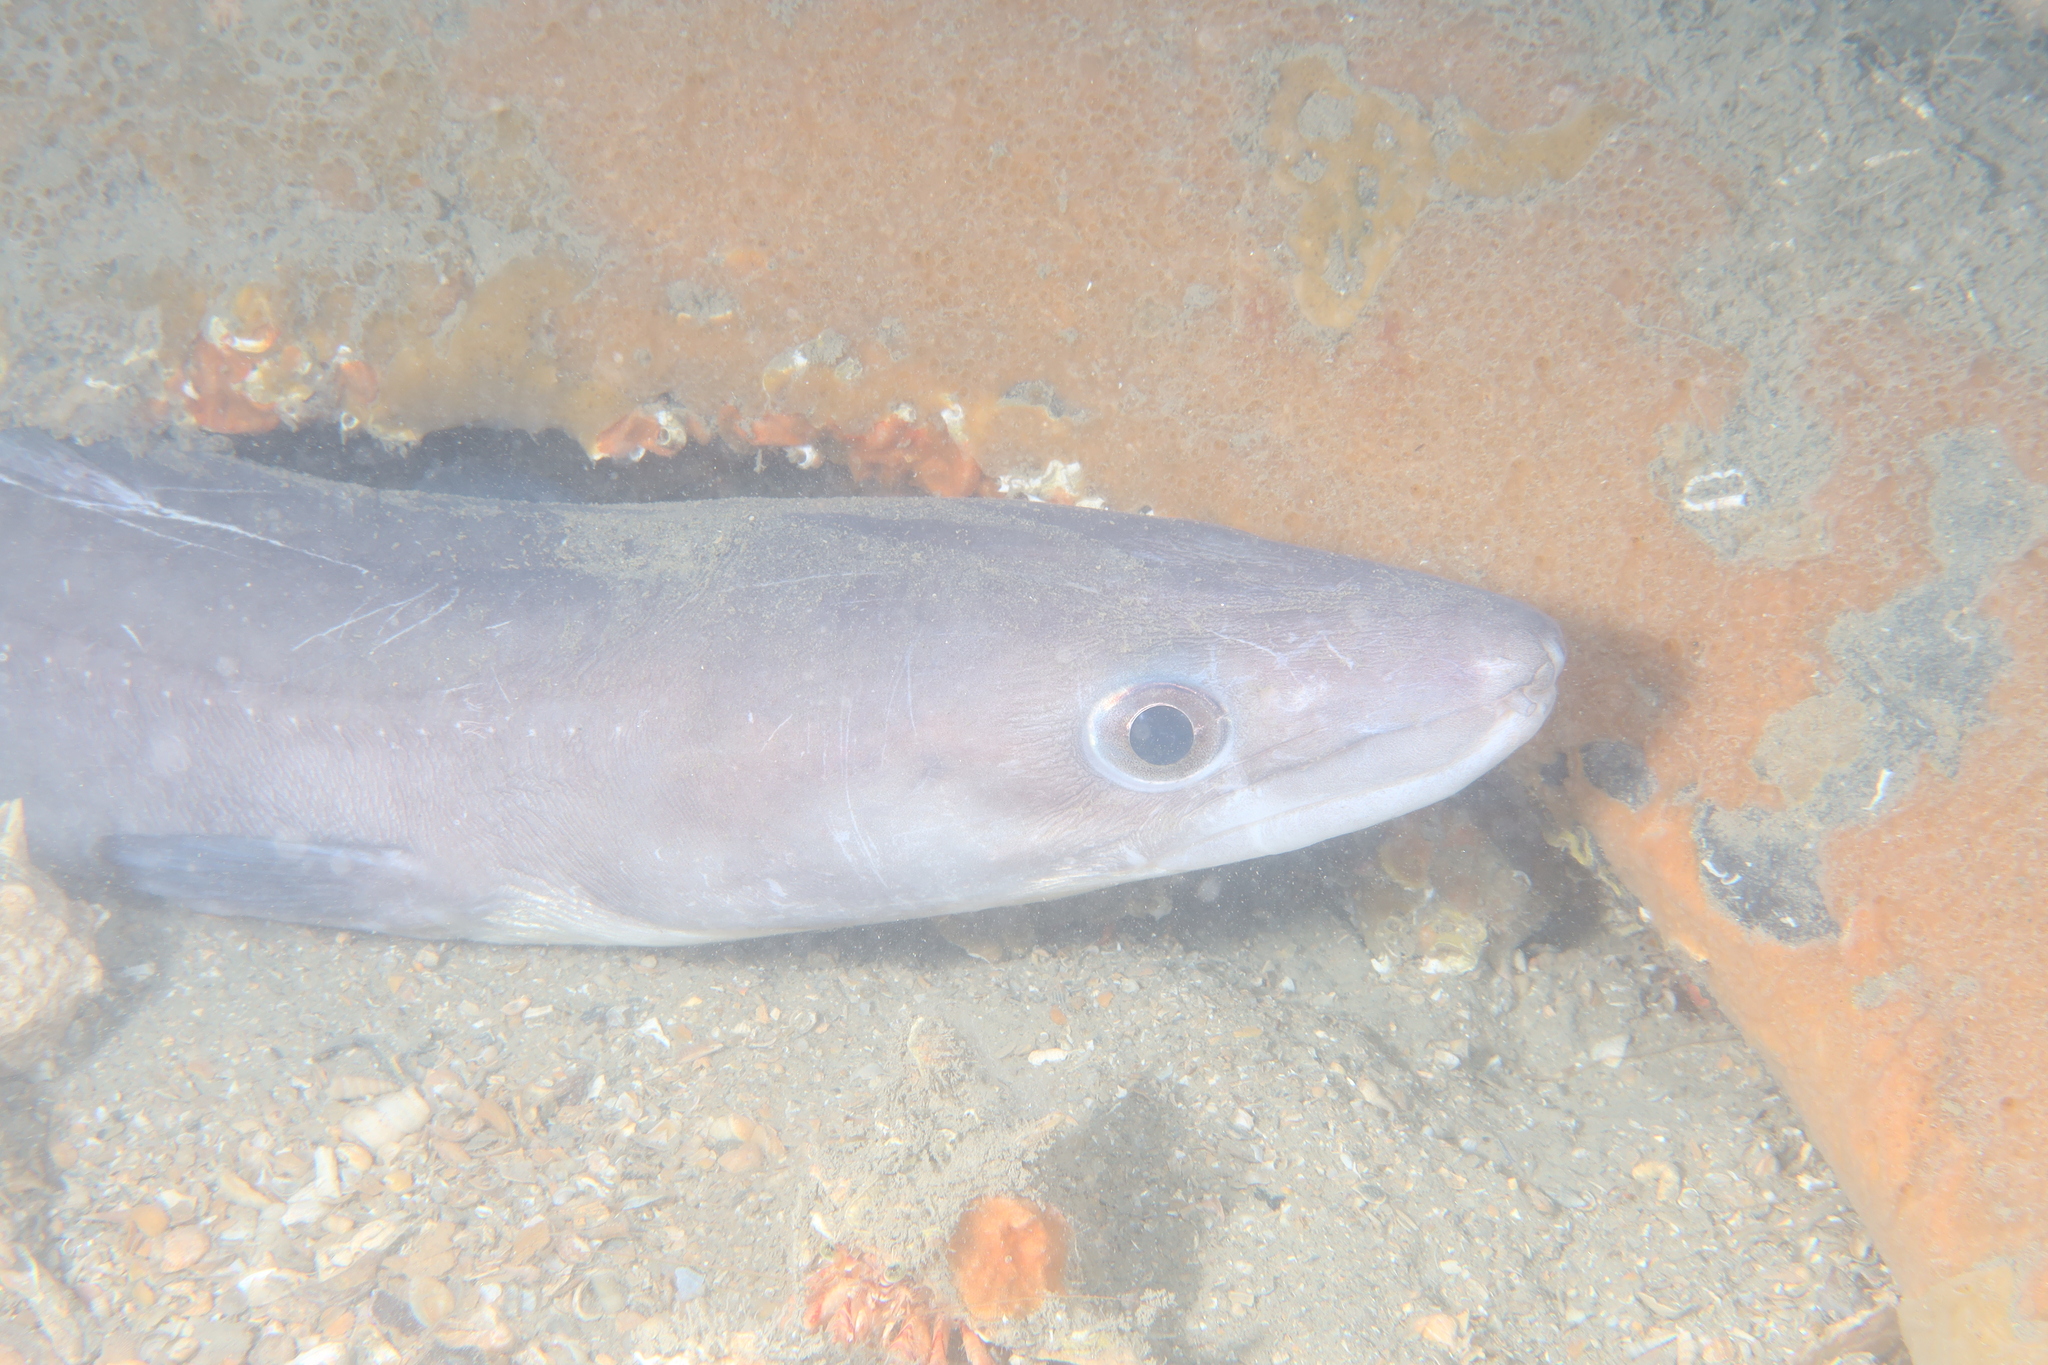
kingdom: Animalia
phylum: Chordata
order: Anguilliformes
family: Congridae
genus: Conger
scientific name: Conger conger
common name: Conger eel
